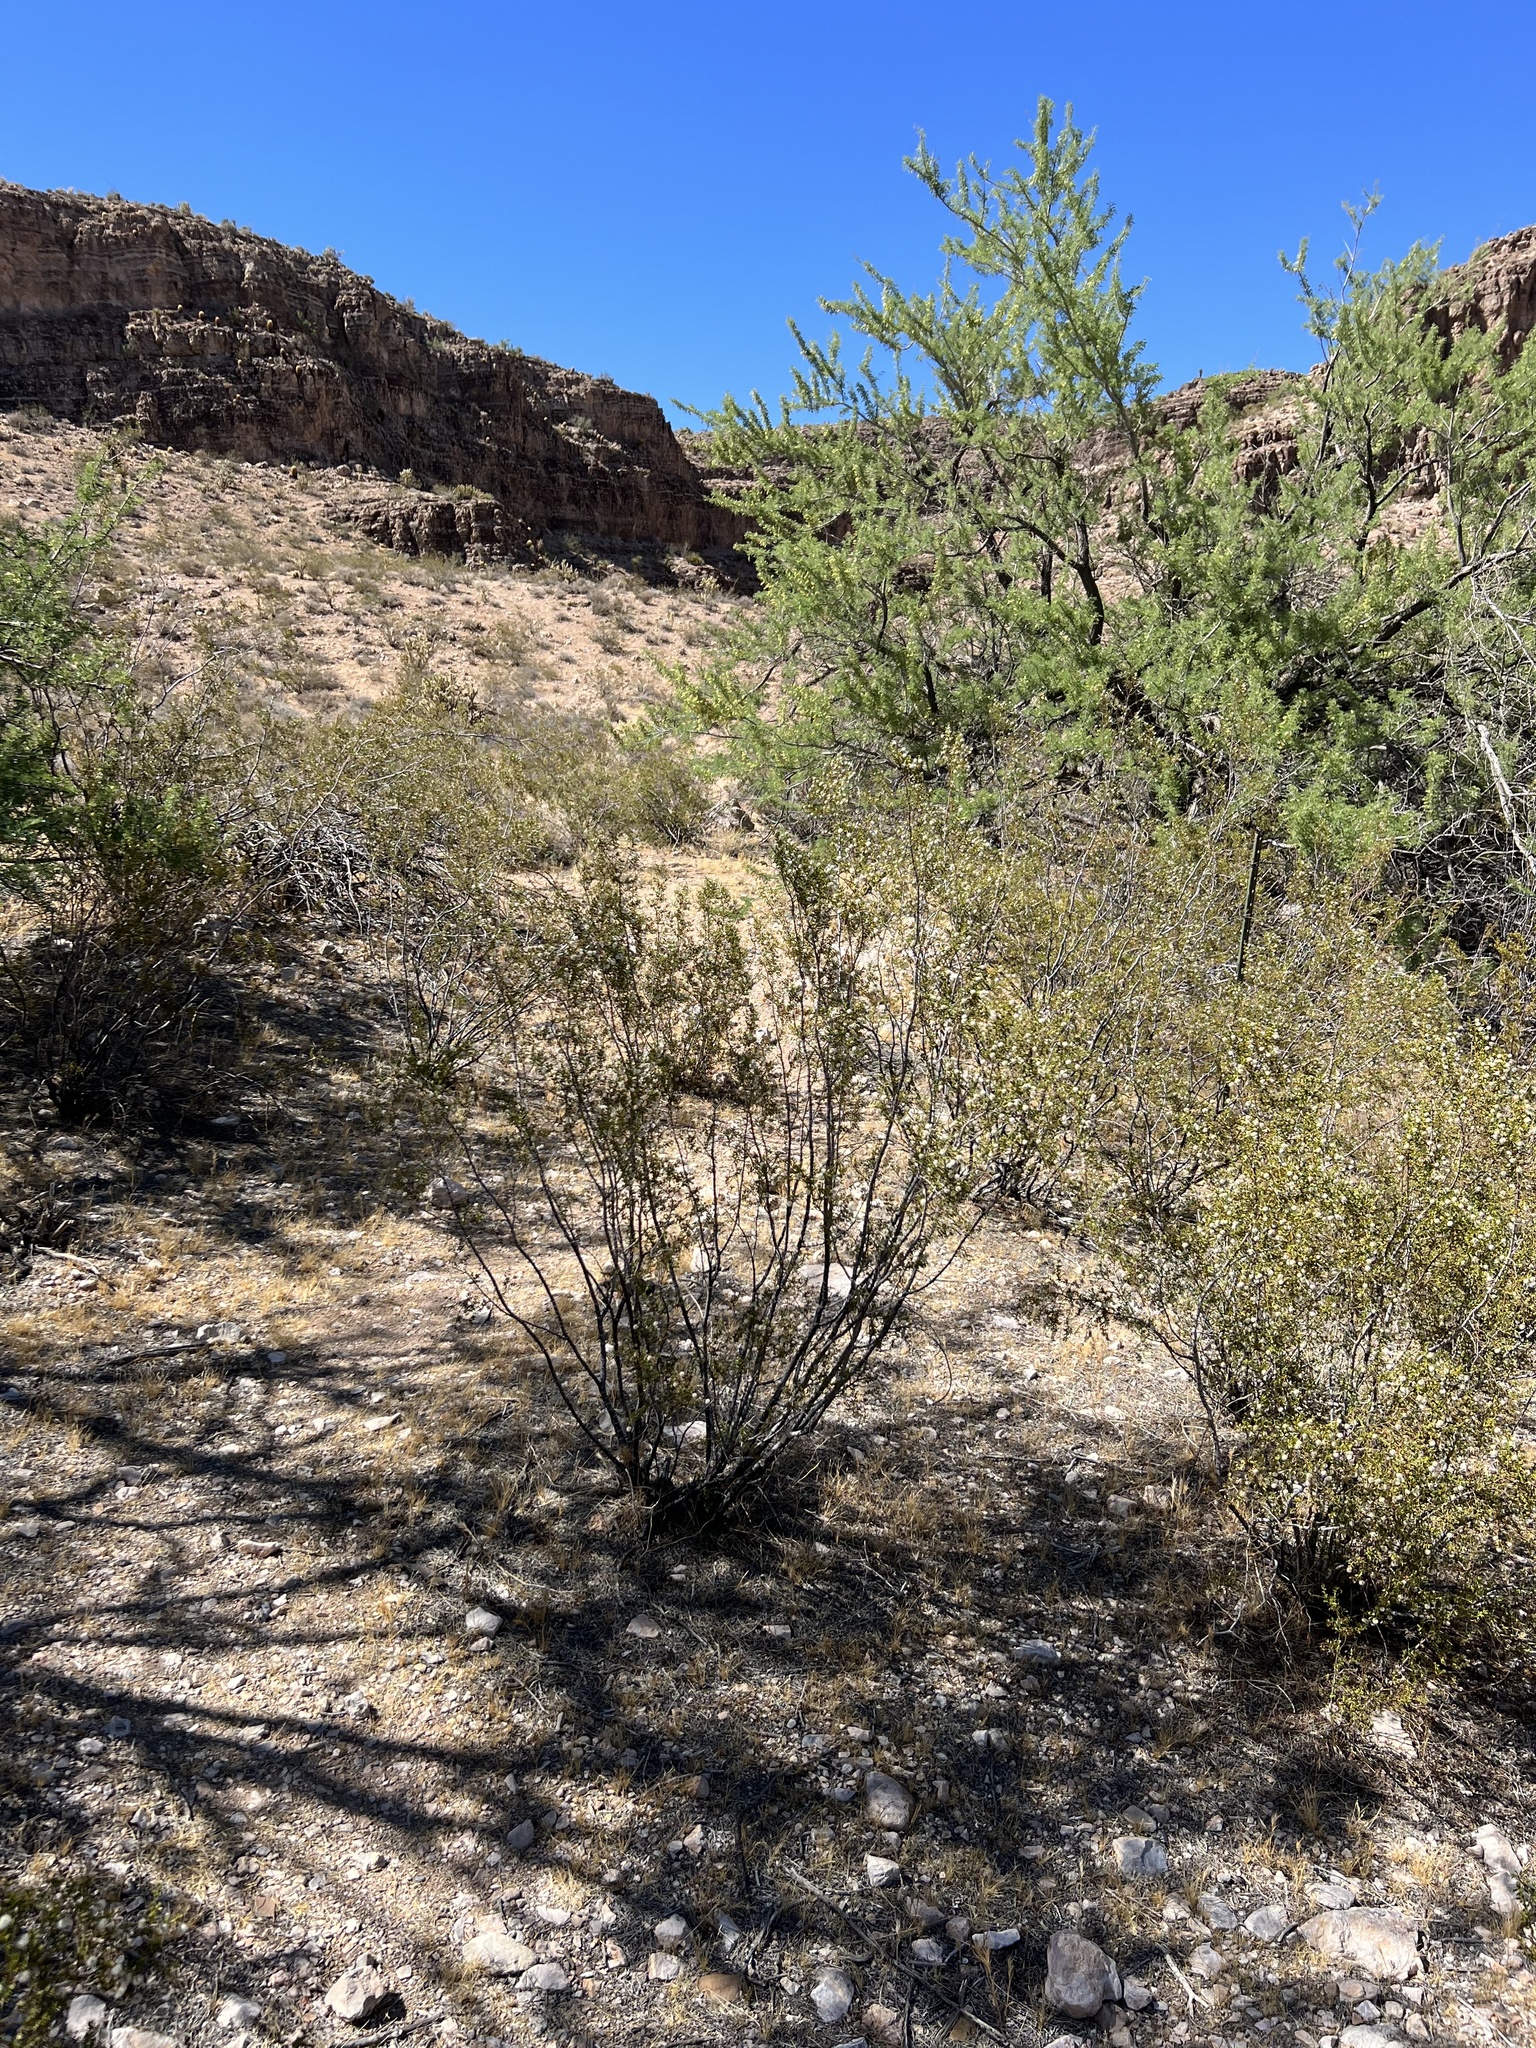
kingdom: Plantae
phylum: Tracheophyta
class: Magnoliopsida
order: Zygophyllales
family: Zygophyllaceae
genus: Larrea
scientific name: Larrea tridentata
